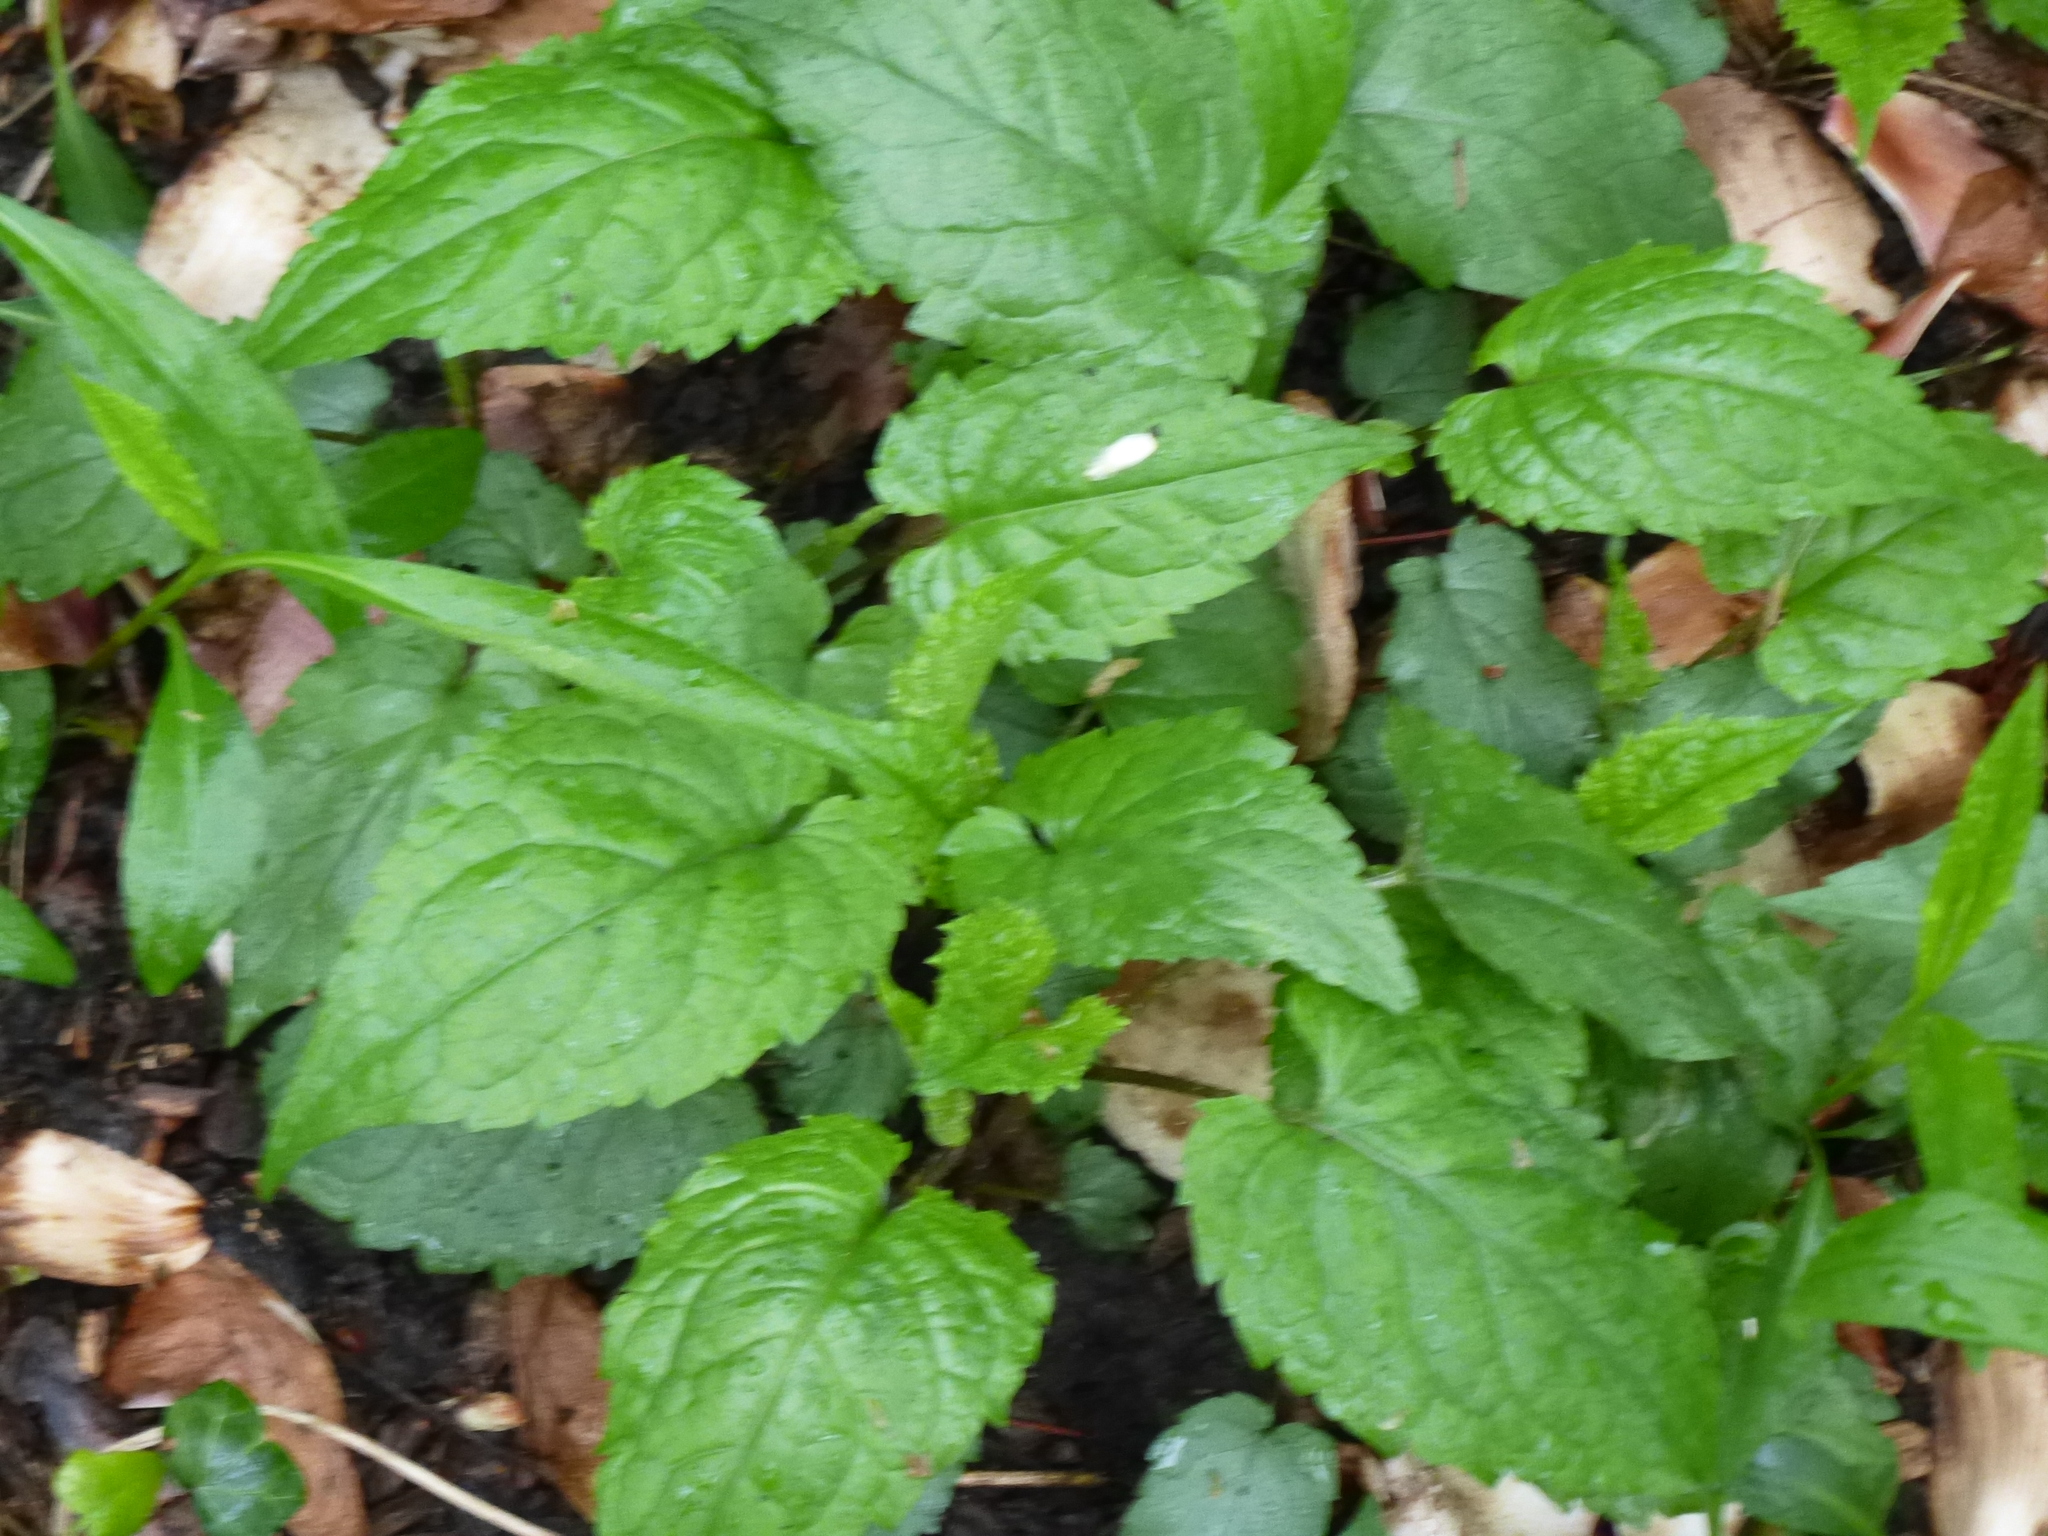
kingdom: Plantae
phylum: Tracheophyta
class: Magnoliopsida
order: Asterales
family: Asteraceae
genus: Eurybia
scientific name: Eurybia divaricata
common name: White wood aster
